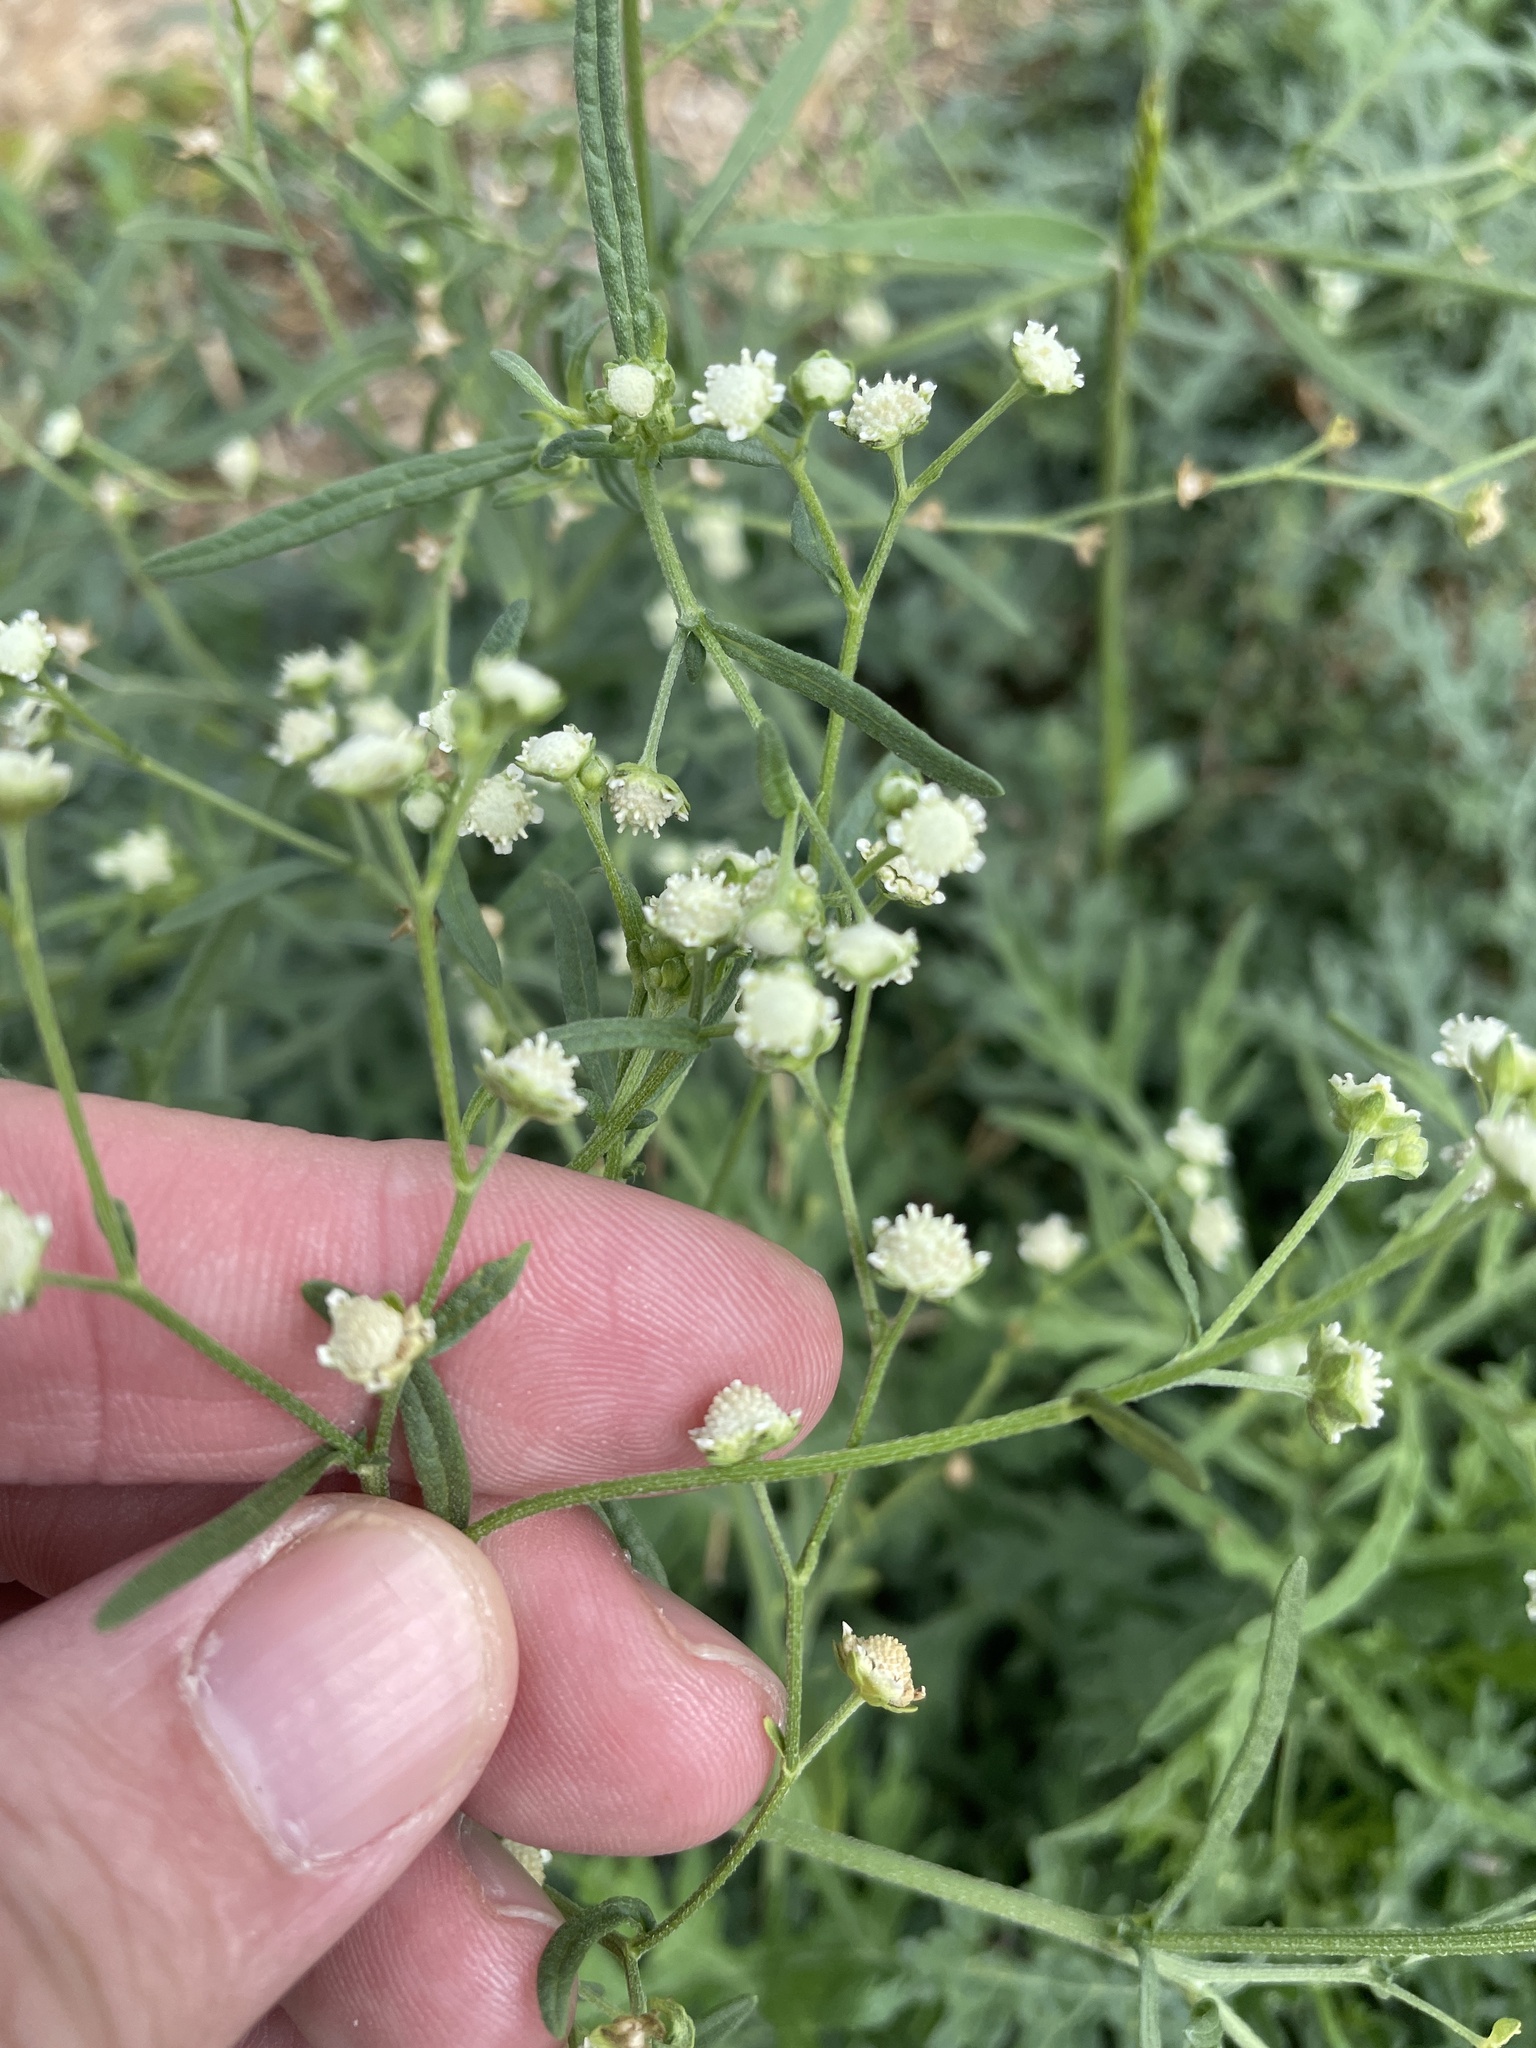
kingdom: Plantae
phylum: Tracheophyta
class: Magnoliopsida
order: Asterales
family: Asteraceae
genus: Parthenium
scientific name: Parthenium hysterophorus
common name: Santa maria feverfew
